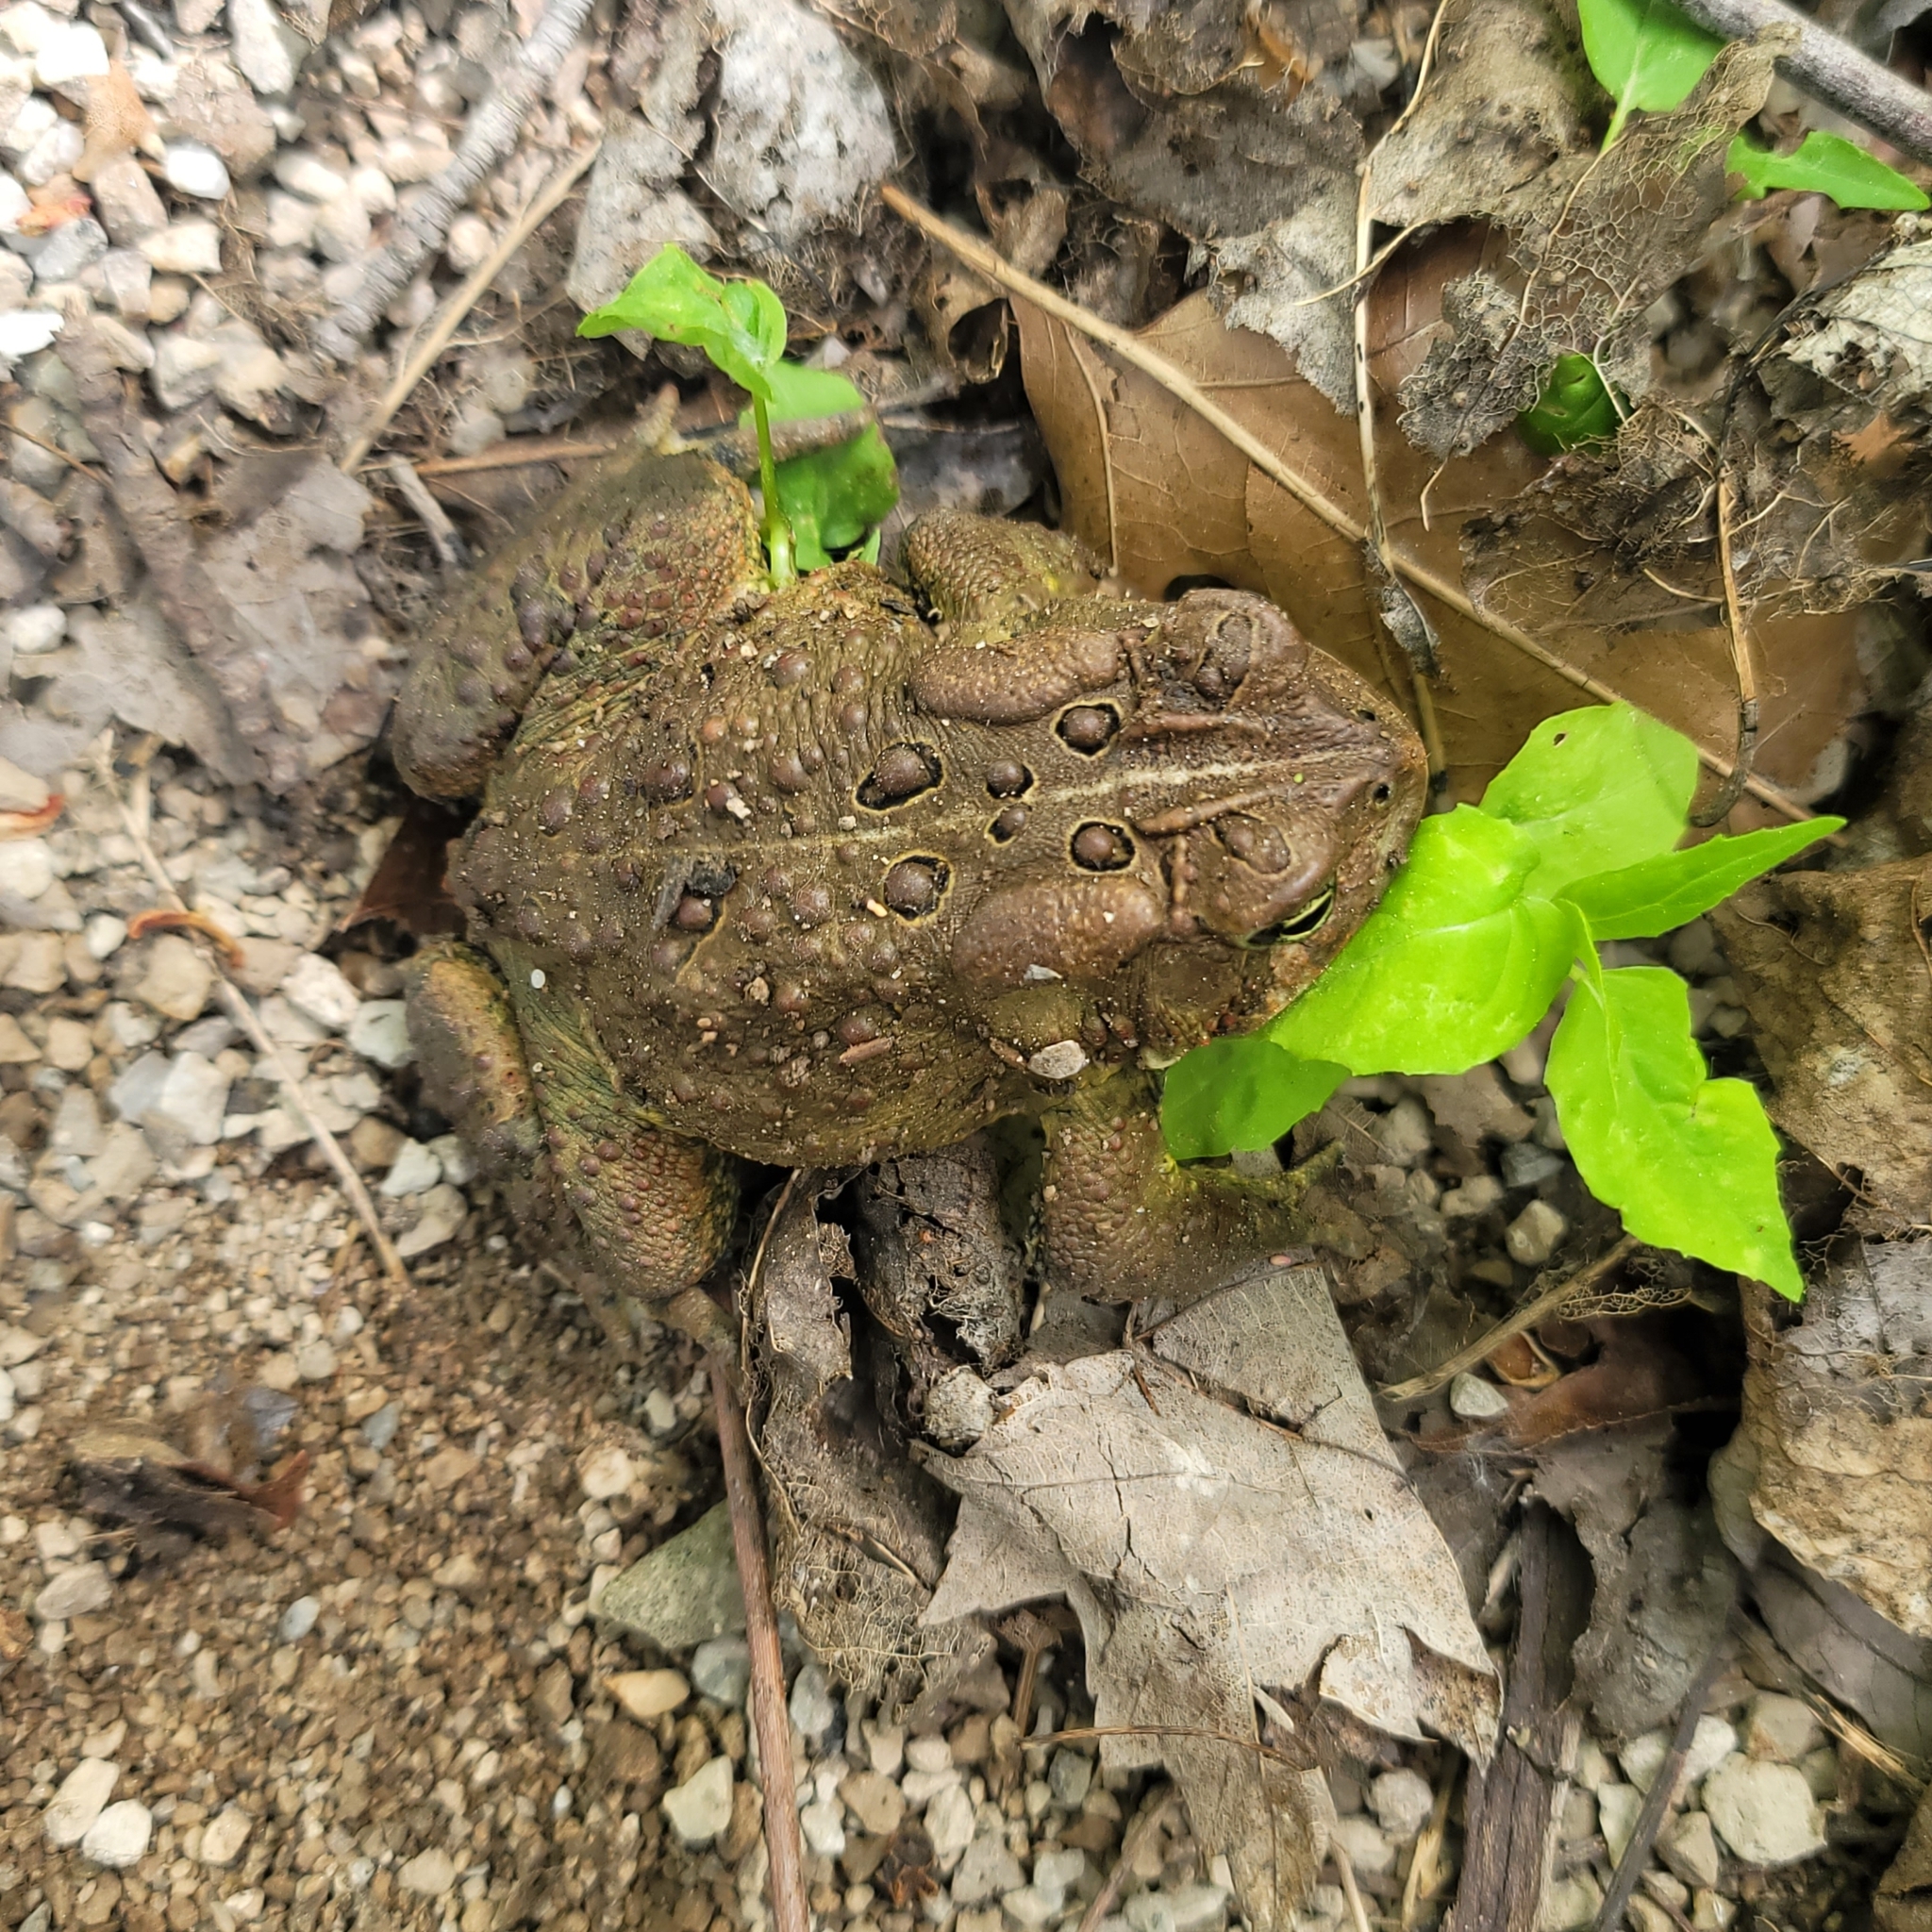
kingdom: Animalia
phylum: Chordata
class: Amphibia
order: Anura
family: Bufonidae
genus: Anaxyrus
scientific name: Anaxyrus americanus
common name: American toad
